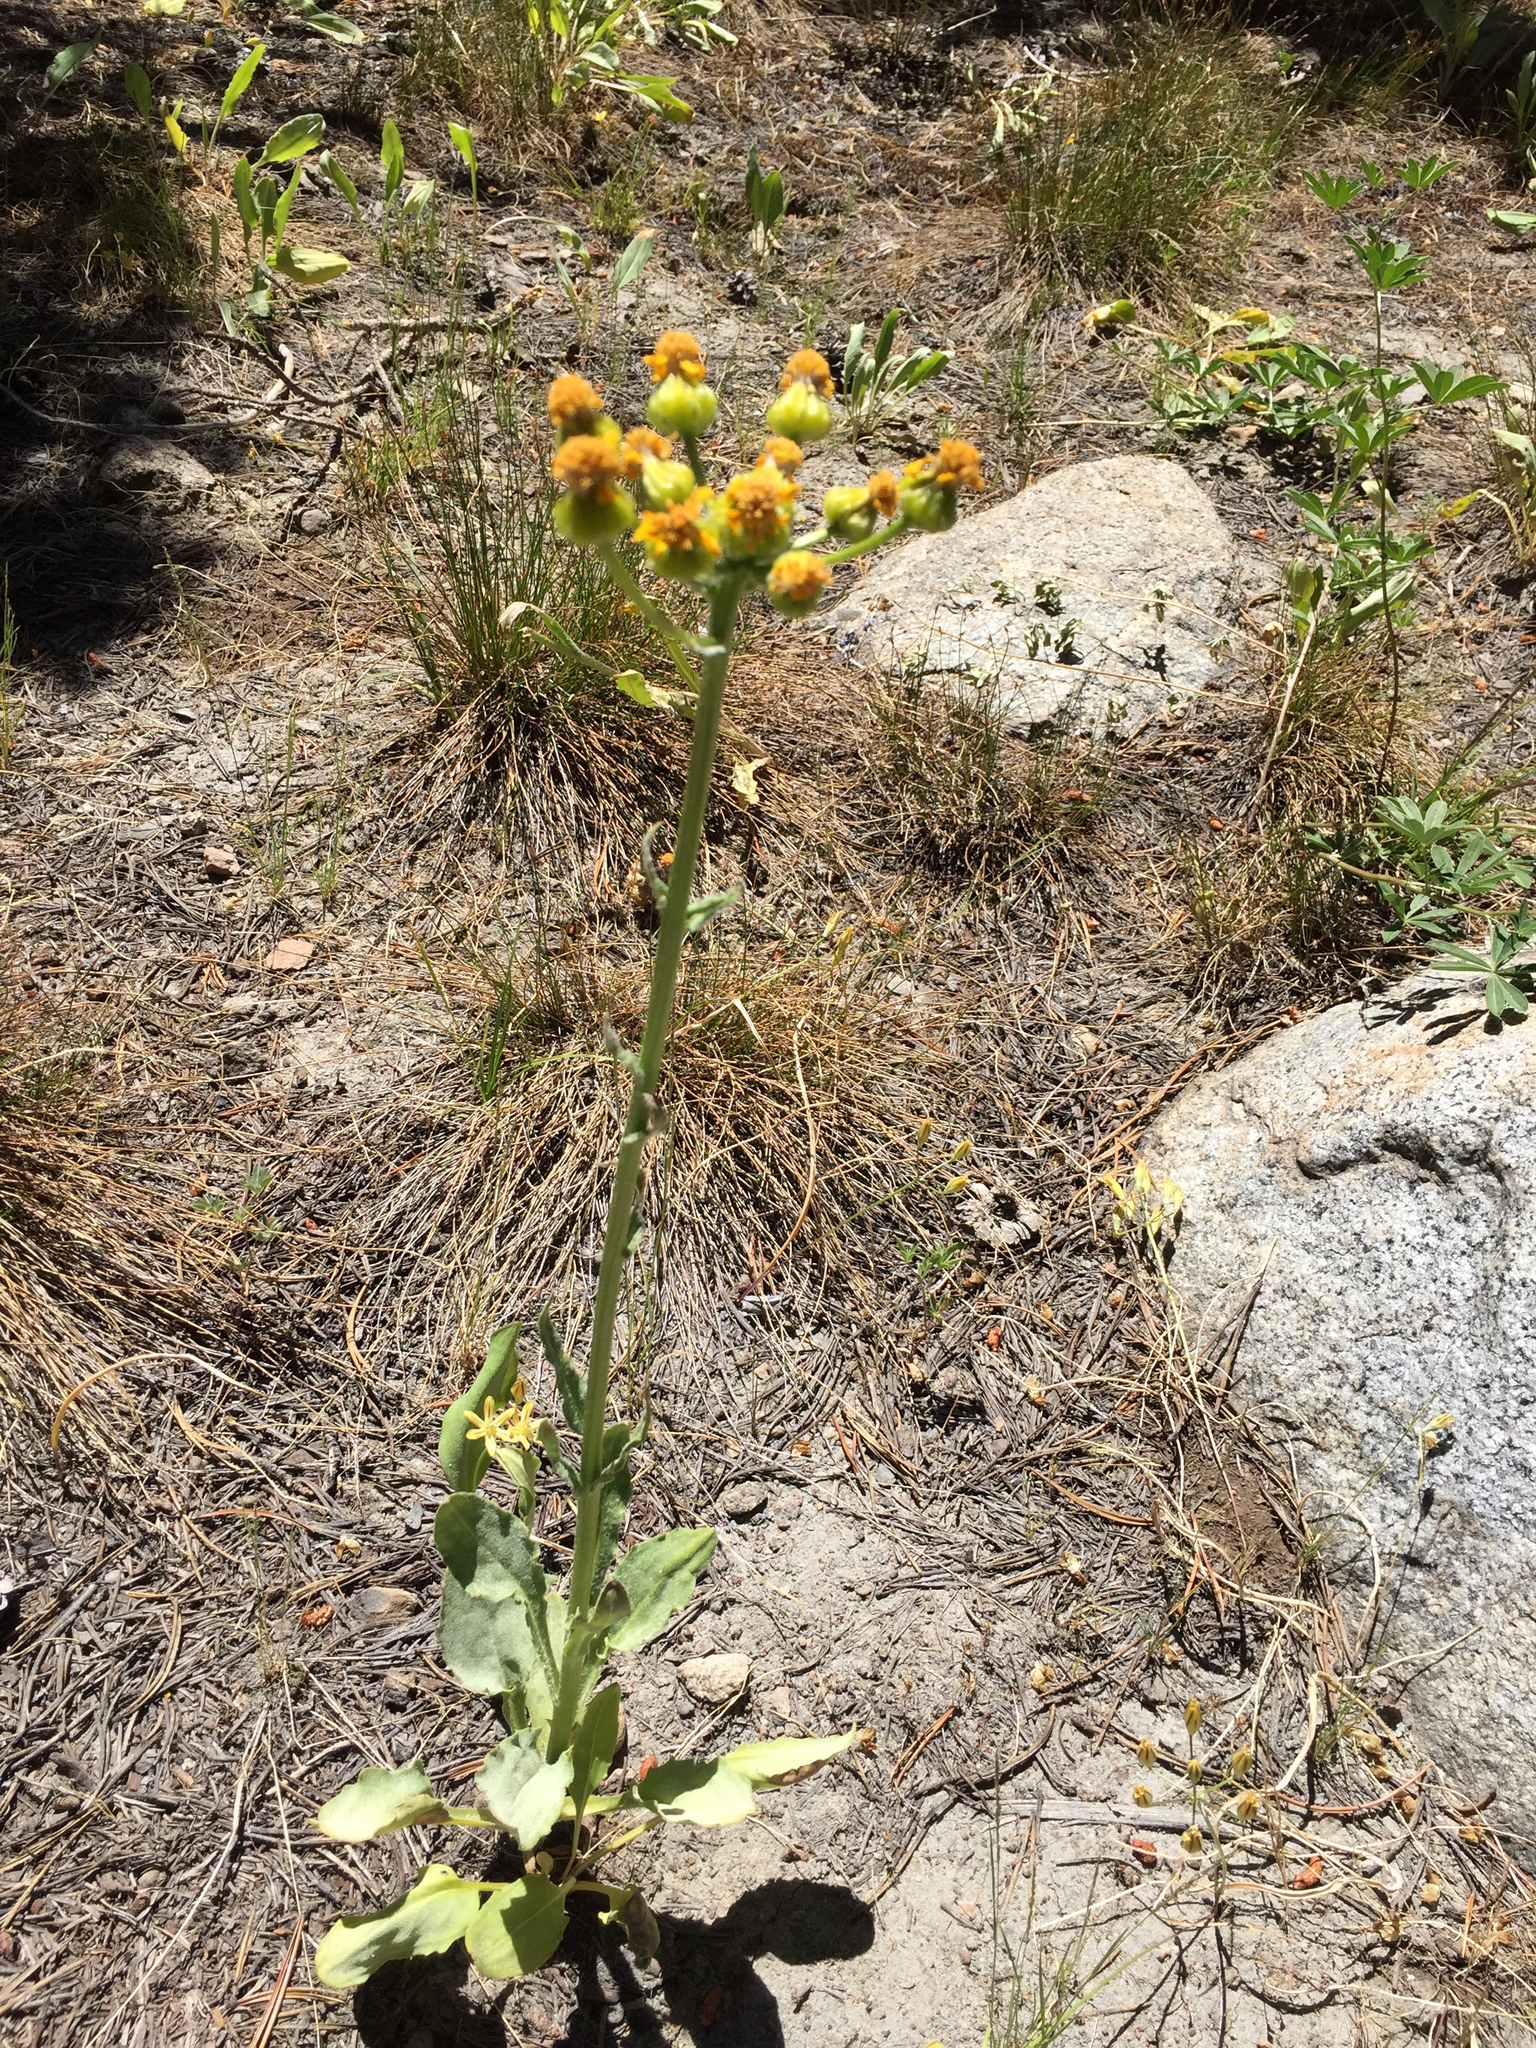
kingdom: Plantae
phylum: Tracheophyta
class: Magnoliopsida
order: Asterales
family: Asteraceae
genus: Senecio
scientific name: Senecio integerrimus
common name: Gaugeplant
